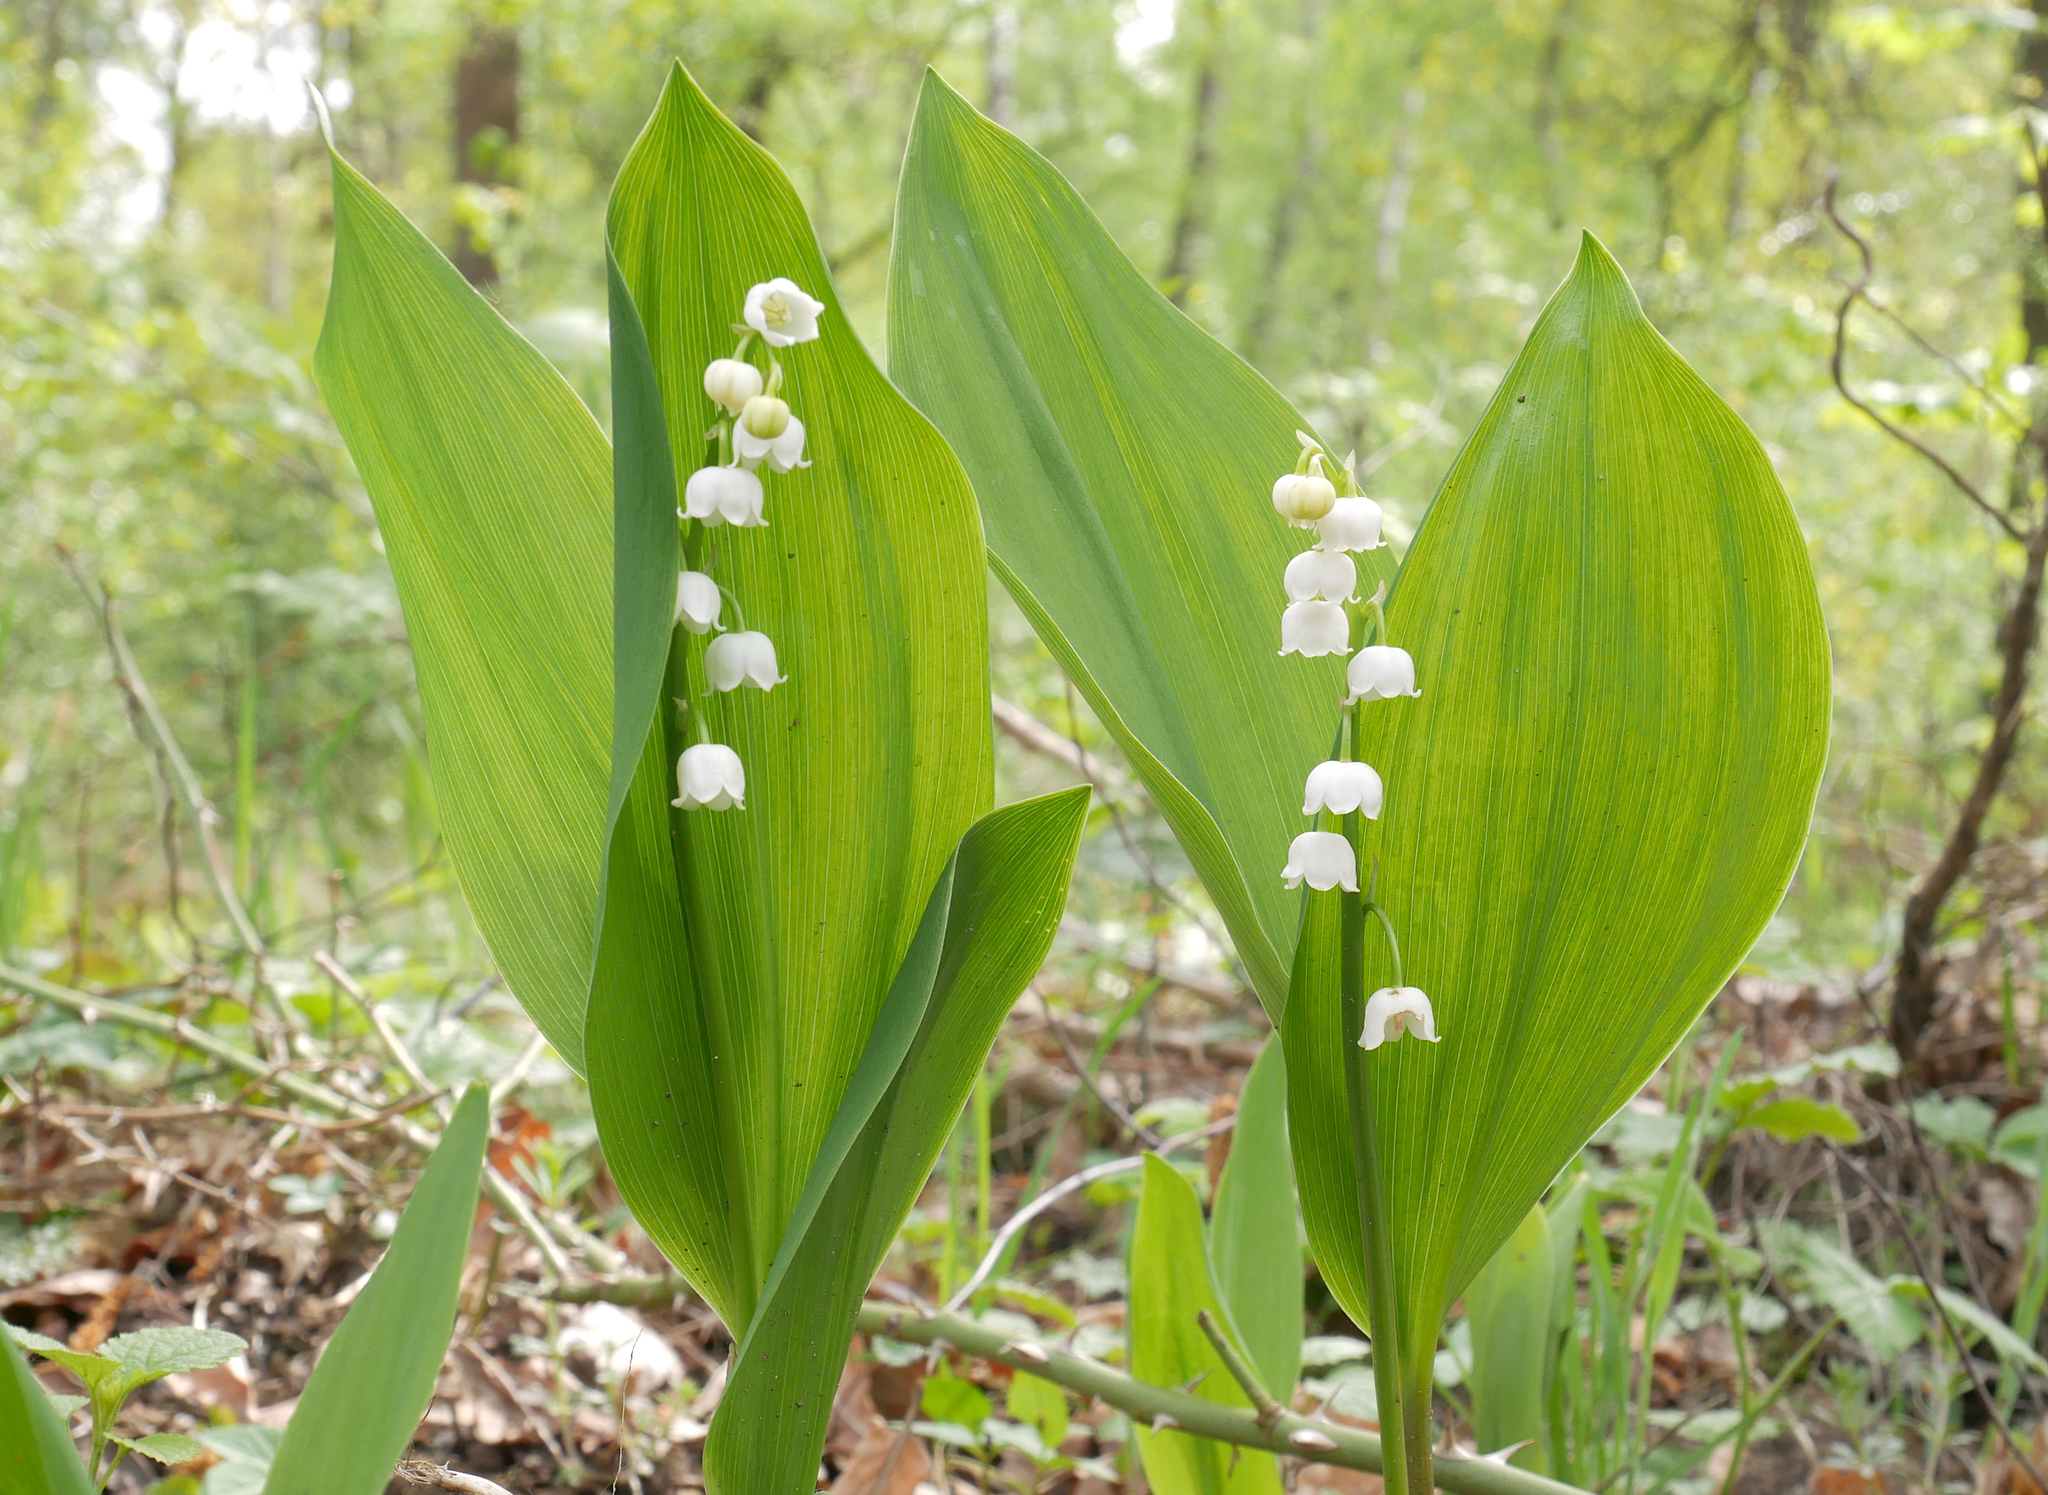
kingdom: Plantae
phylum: Tracheophyta
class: Liliopsida
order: Asparagales
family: Asparagaceae
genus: Convallaria
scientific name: Convallaria majalis
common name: Lily-of-the-valley
